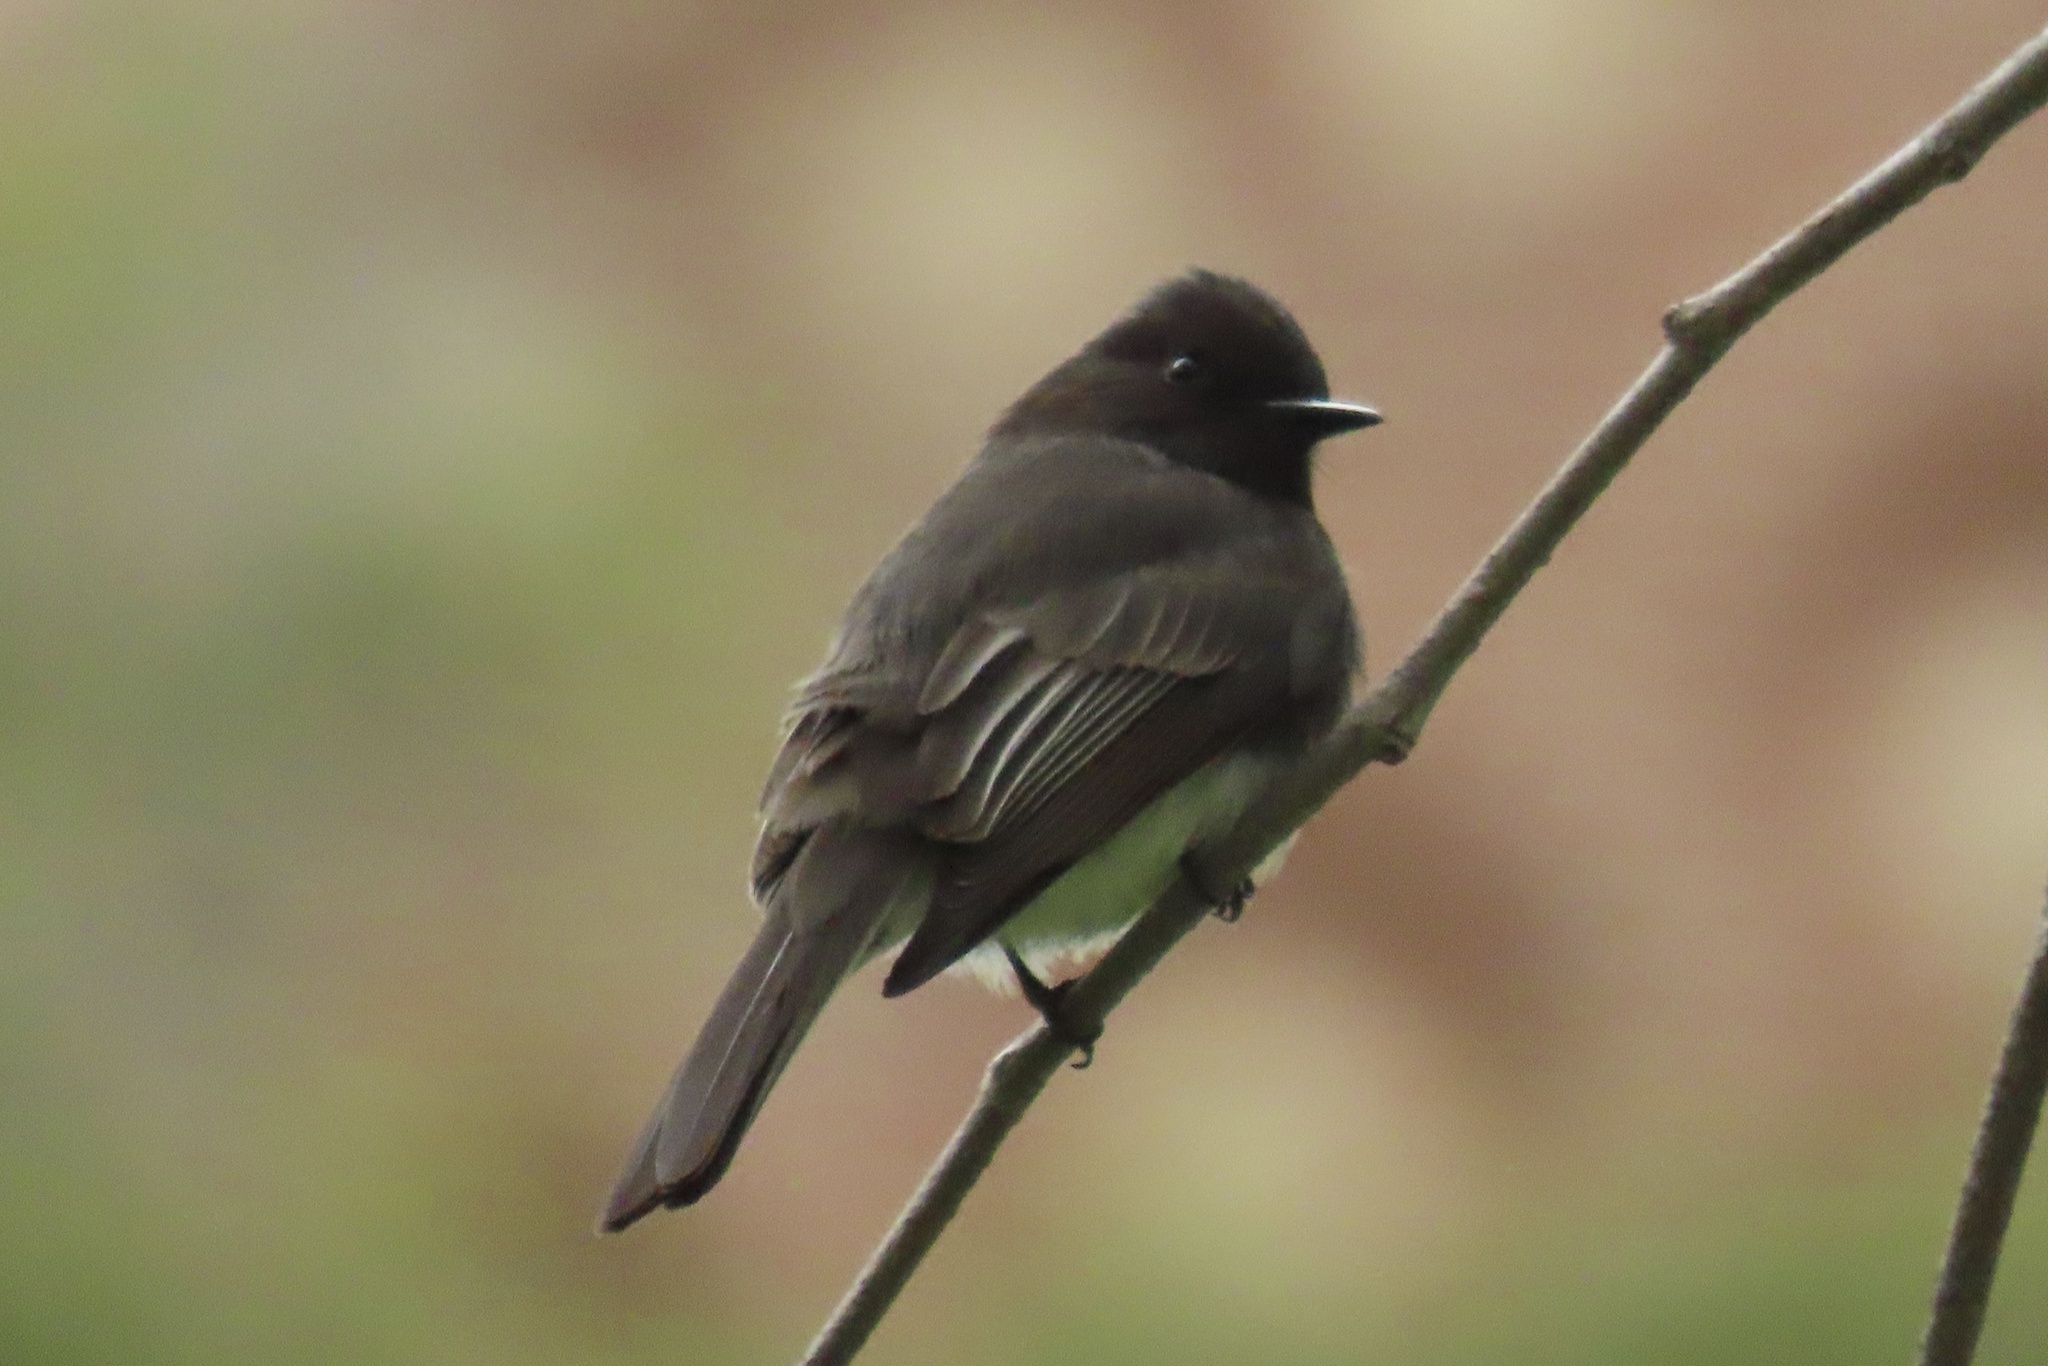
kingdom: Animalia
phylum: Chordata
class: Aves
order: Passeriformes
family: Tyrannidae
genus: Sayornis
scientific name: Sayornis nigricans
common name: Black phoebe
